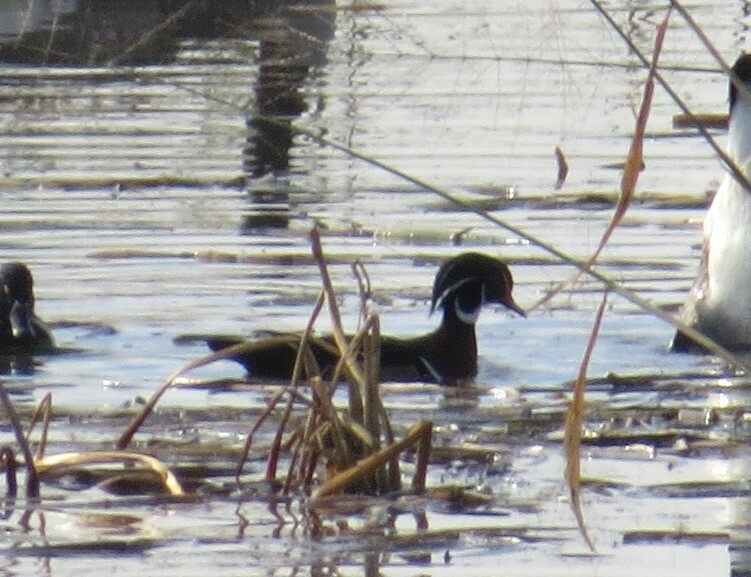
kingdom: Animalia
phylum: Chordata
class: Aves
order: Anseriformes
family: Anatidae
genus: Aix
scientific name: Aix sponsa
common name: Wood duck
